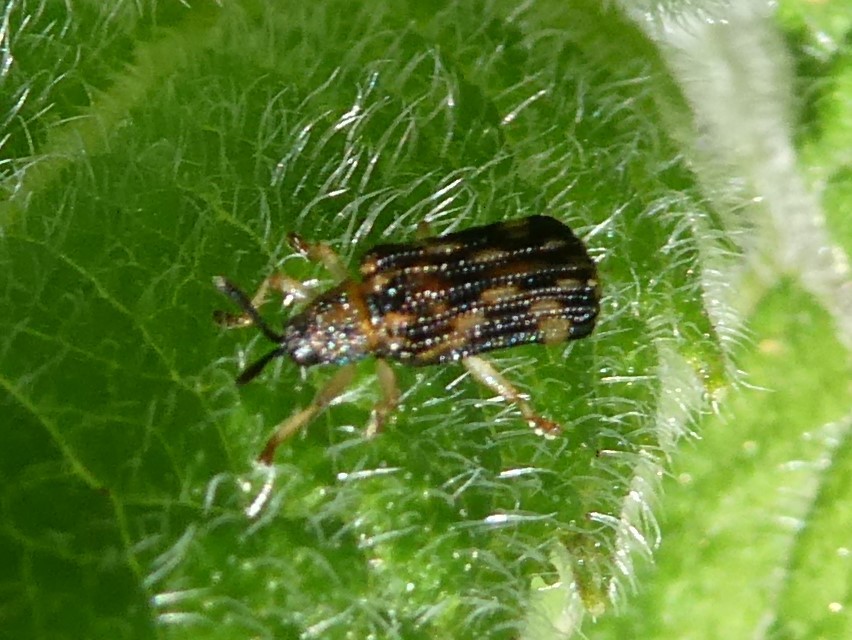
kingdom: Animalia
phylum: Arthropoda
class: Insecta
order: Coleoptera
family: Chrysomelidae
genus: Sumitrosis
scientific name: Sumitrosis inaequalis
